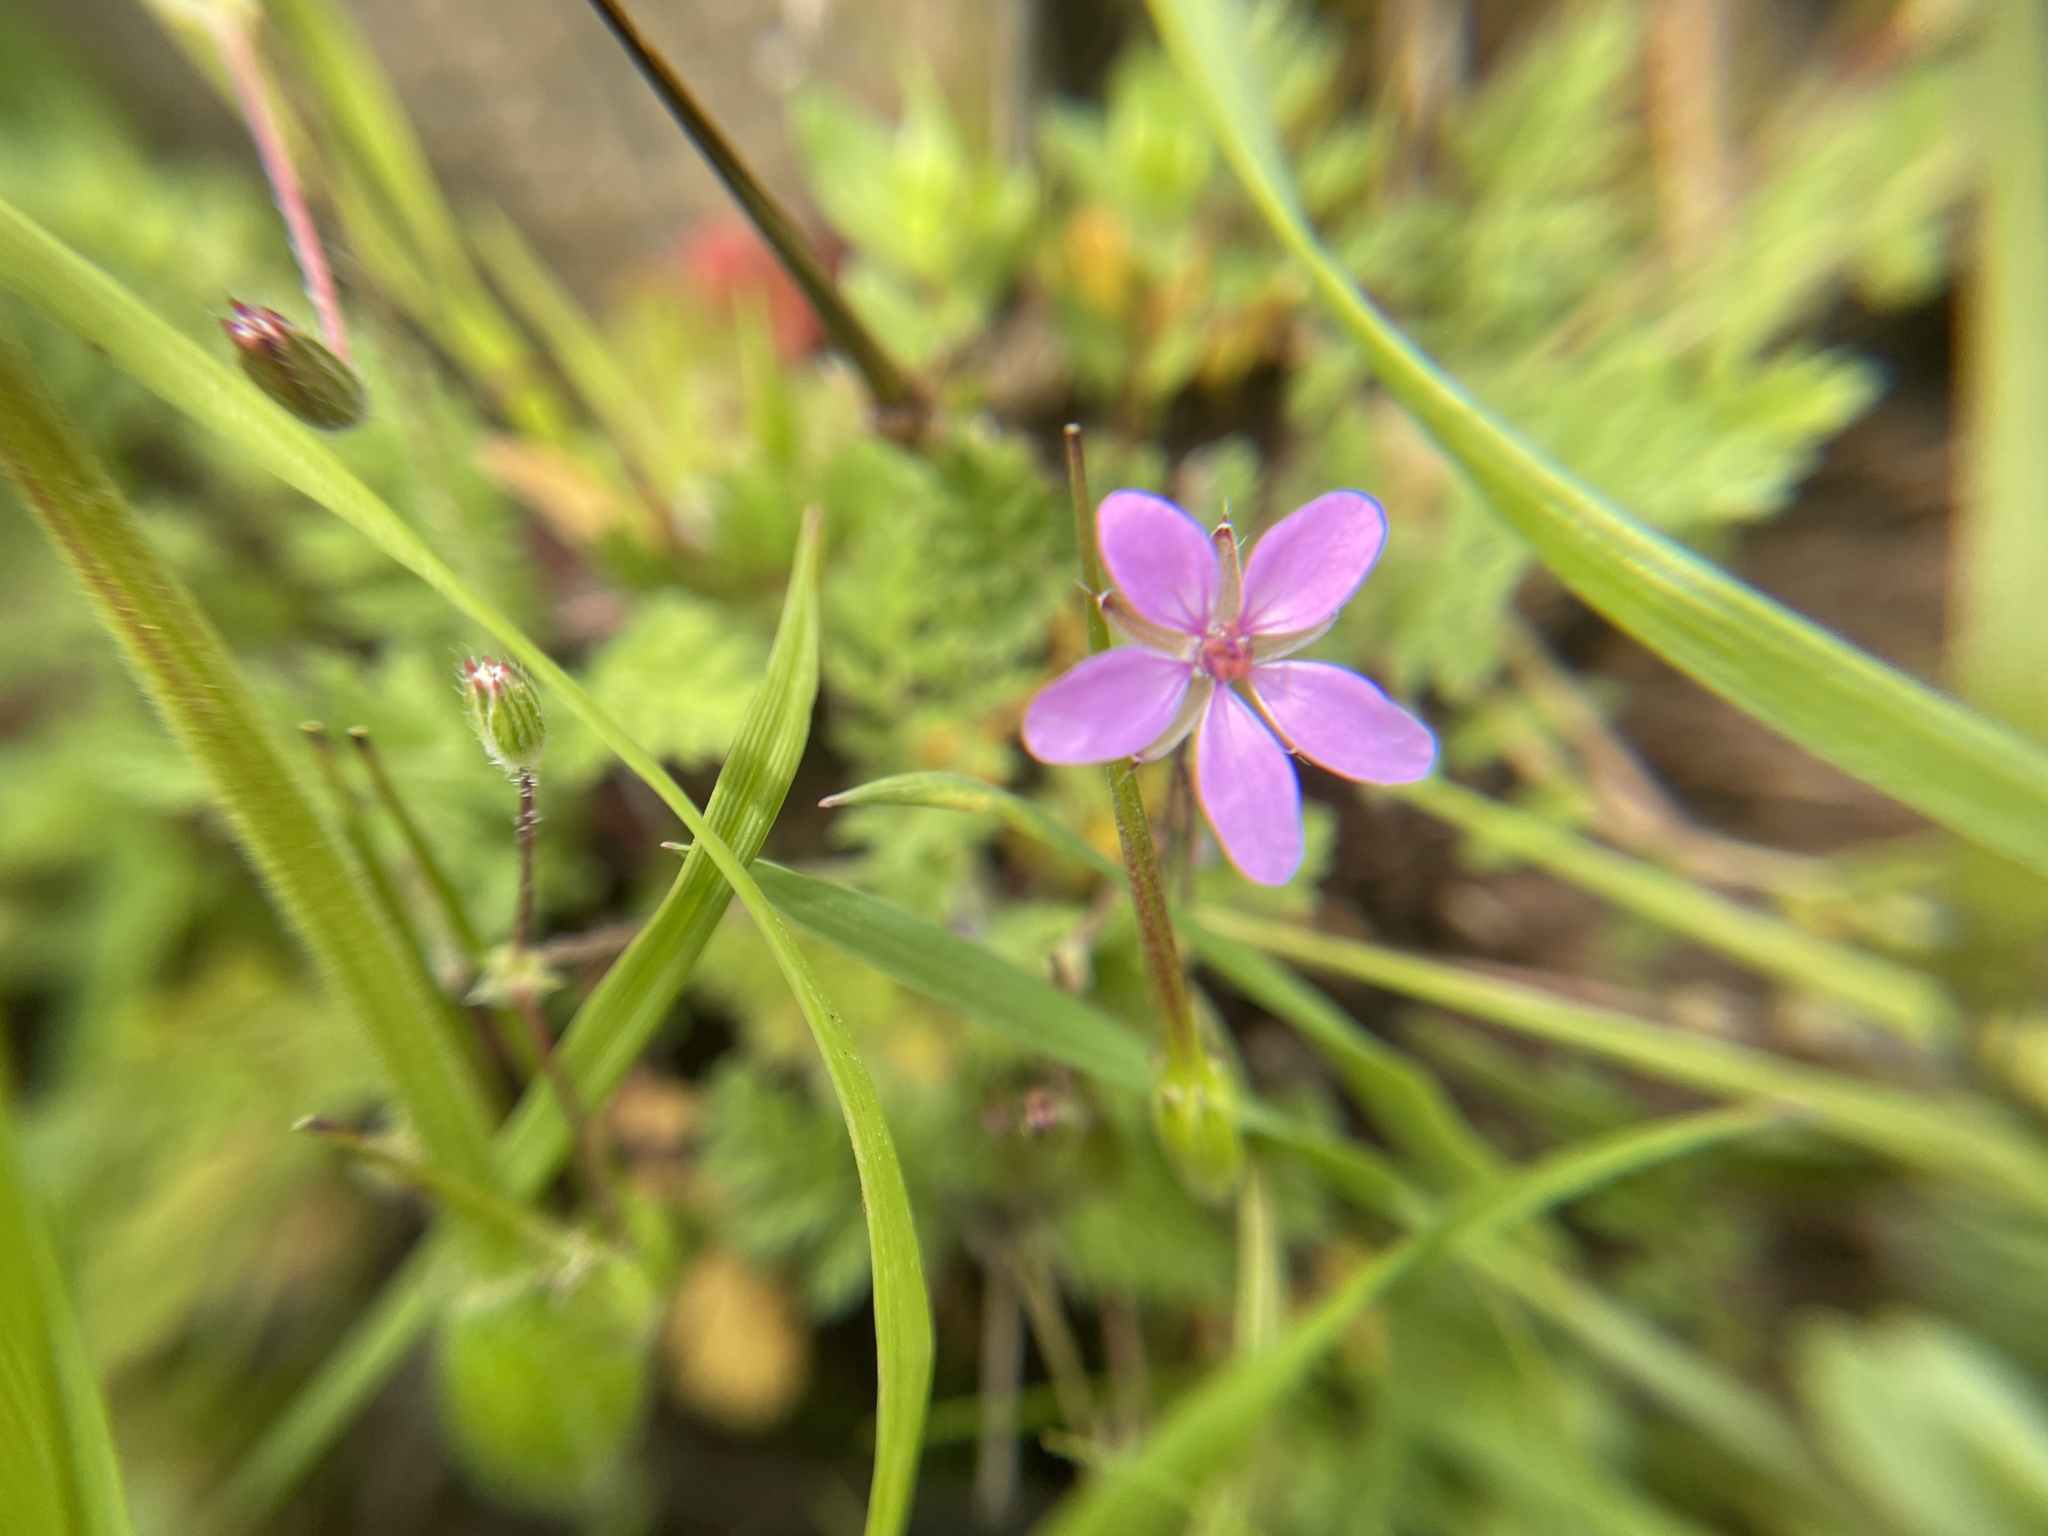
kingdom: Plantae
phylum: Tracheophyta
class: Magnoliopsida
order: Geraniales
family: Geraniaceae
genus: Erodium
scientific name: Erodium cicutarium
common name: Common stork's-bill
